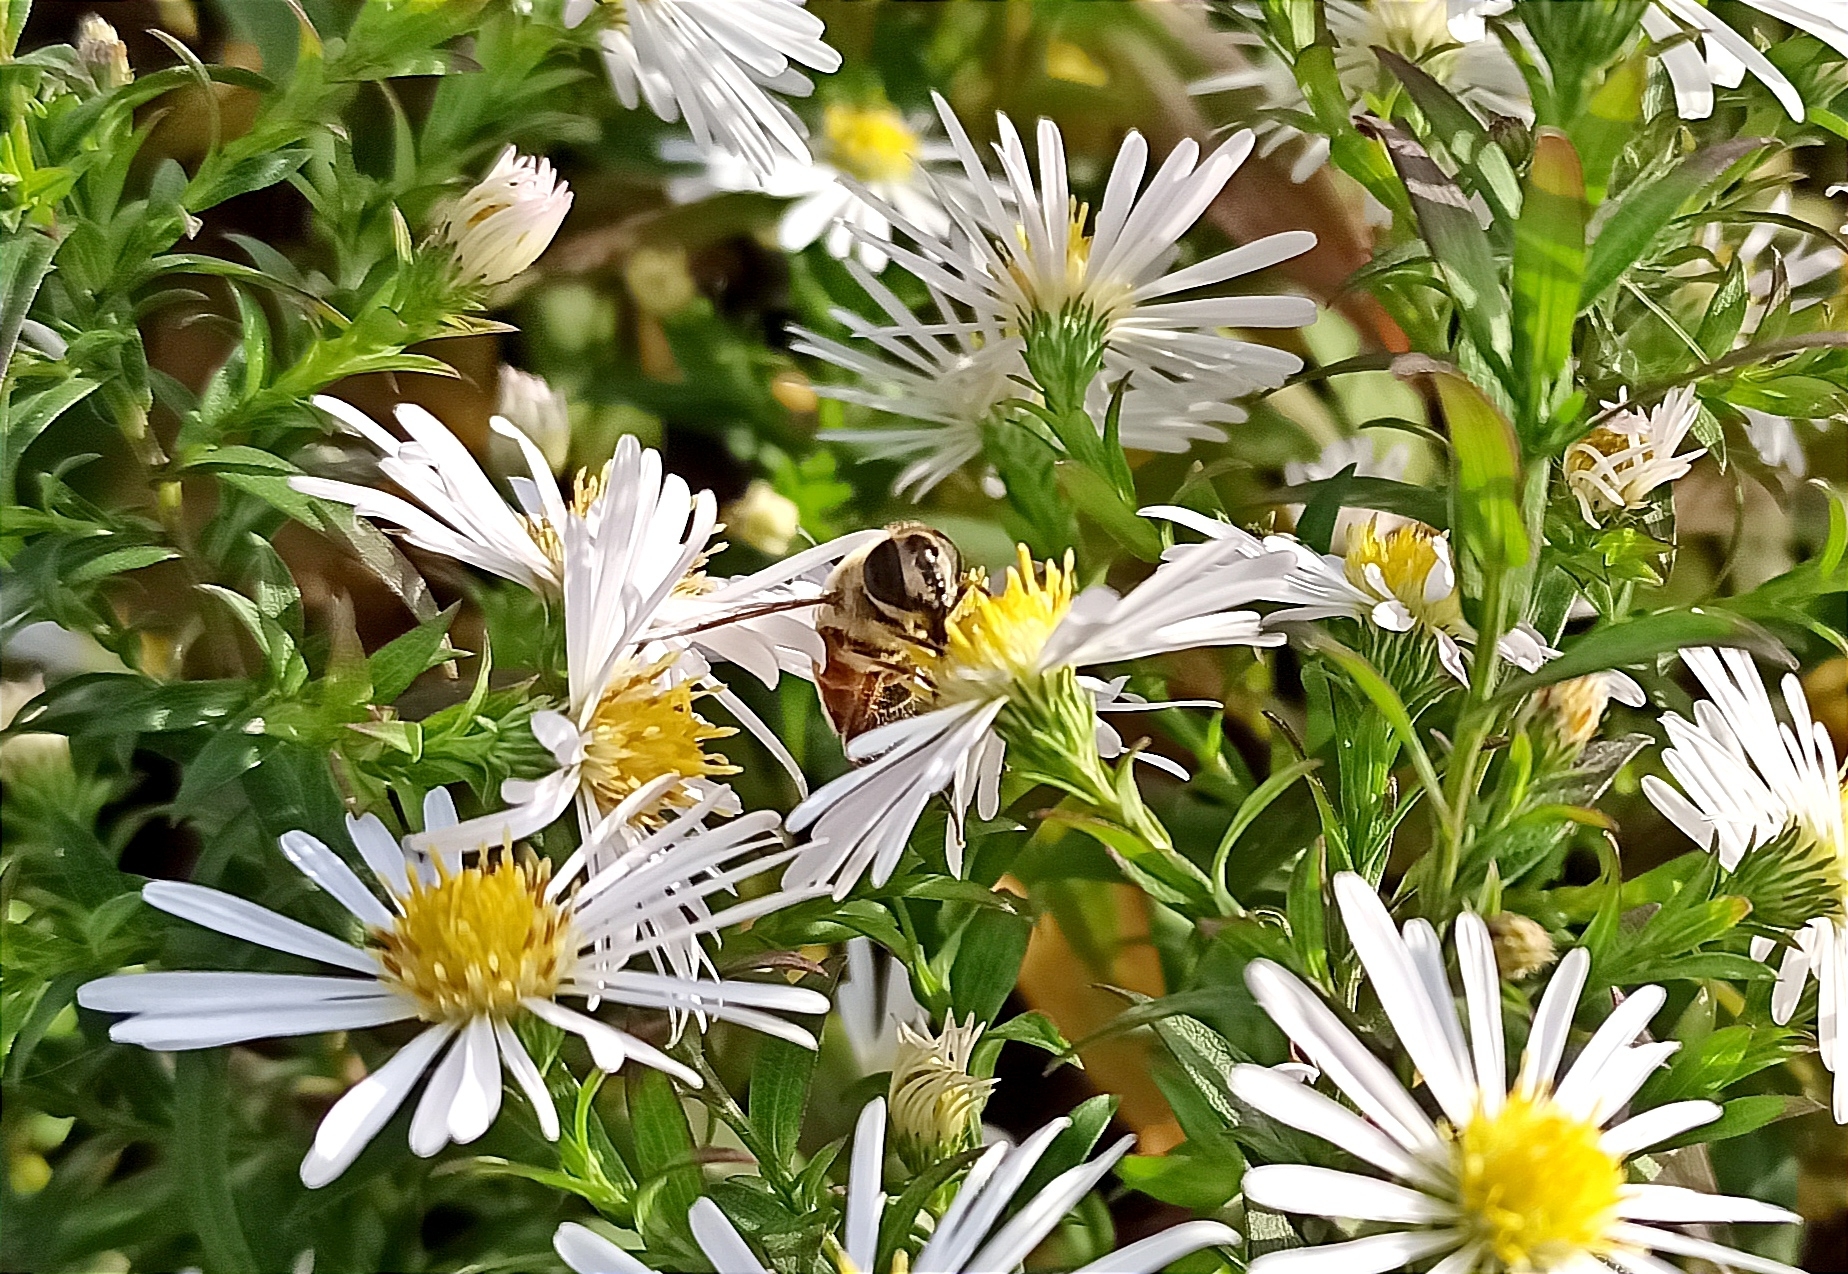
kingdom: Animalia
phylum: Arthropoda
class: Insecta
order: Diptera
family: Syrphidae
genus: Eristalis
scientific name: Eristalis tenax
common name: Drone fly
